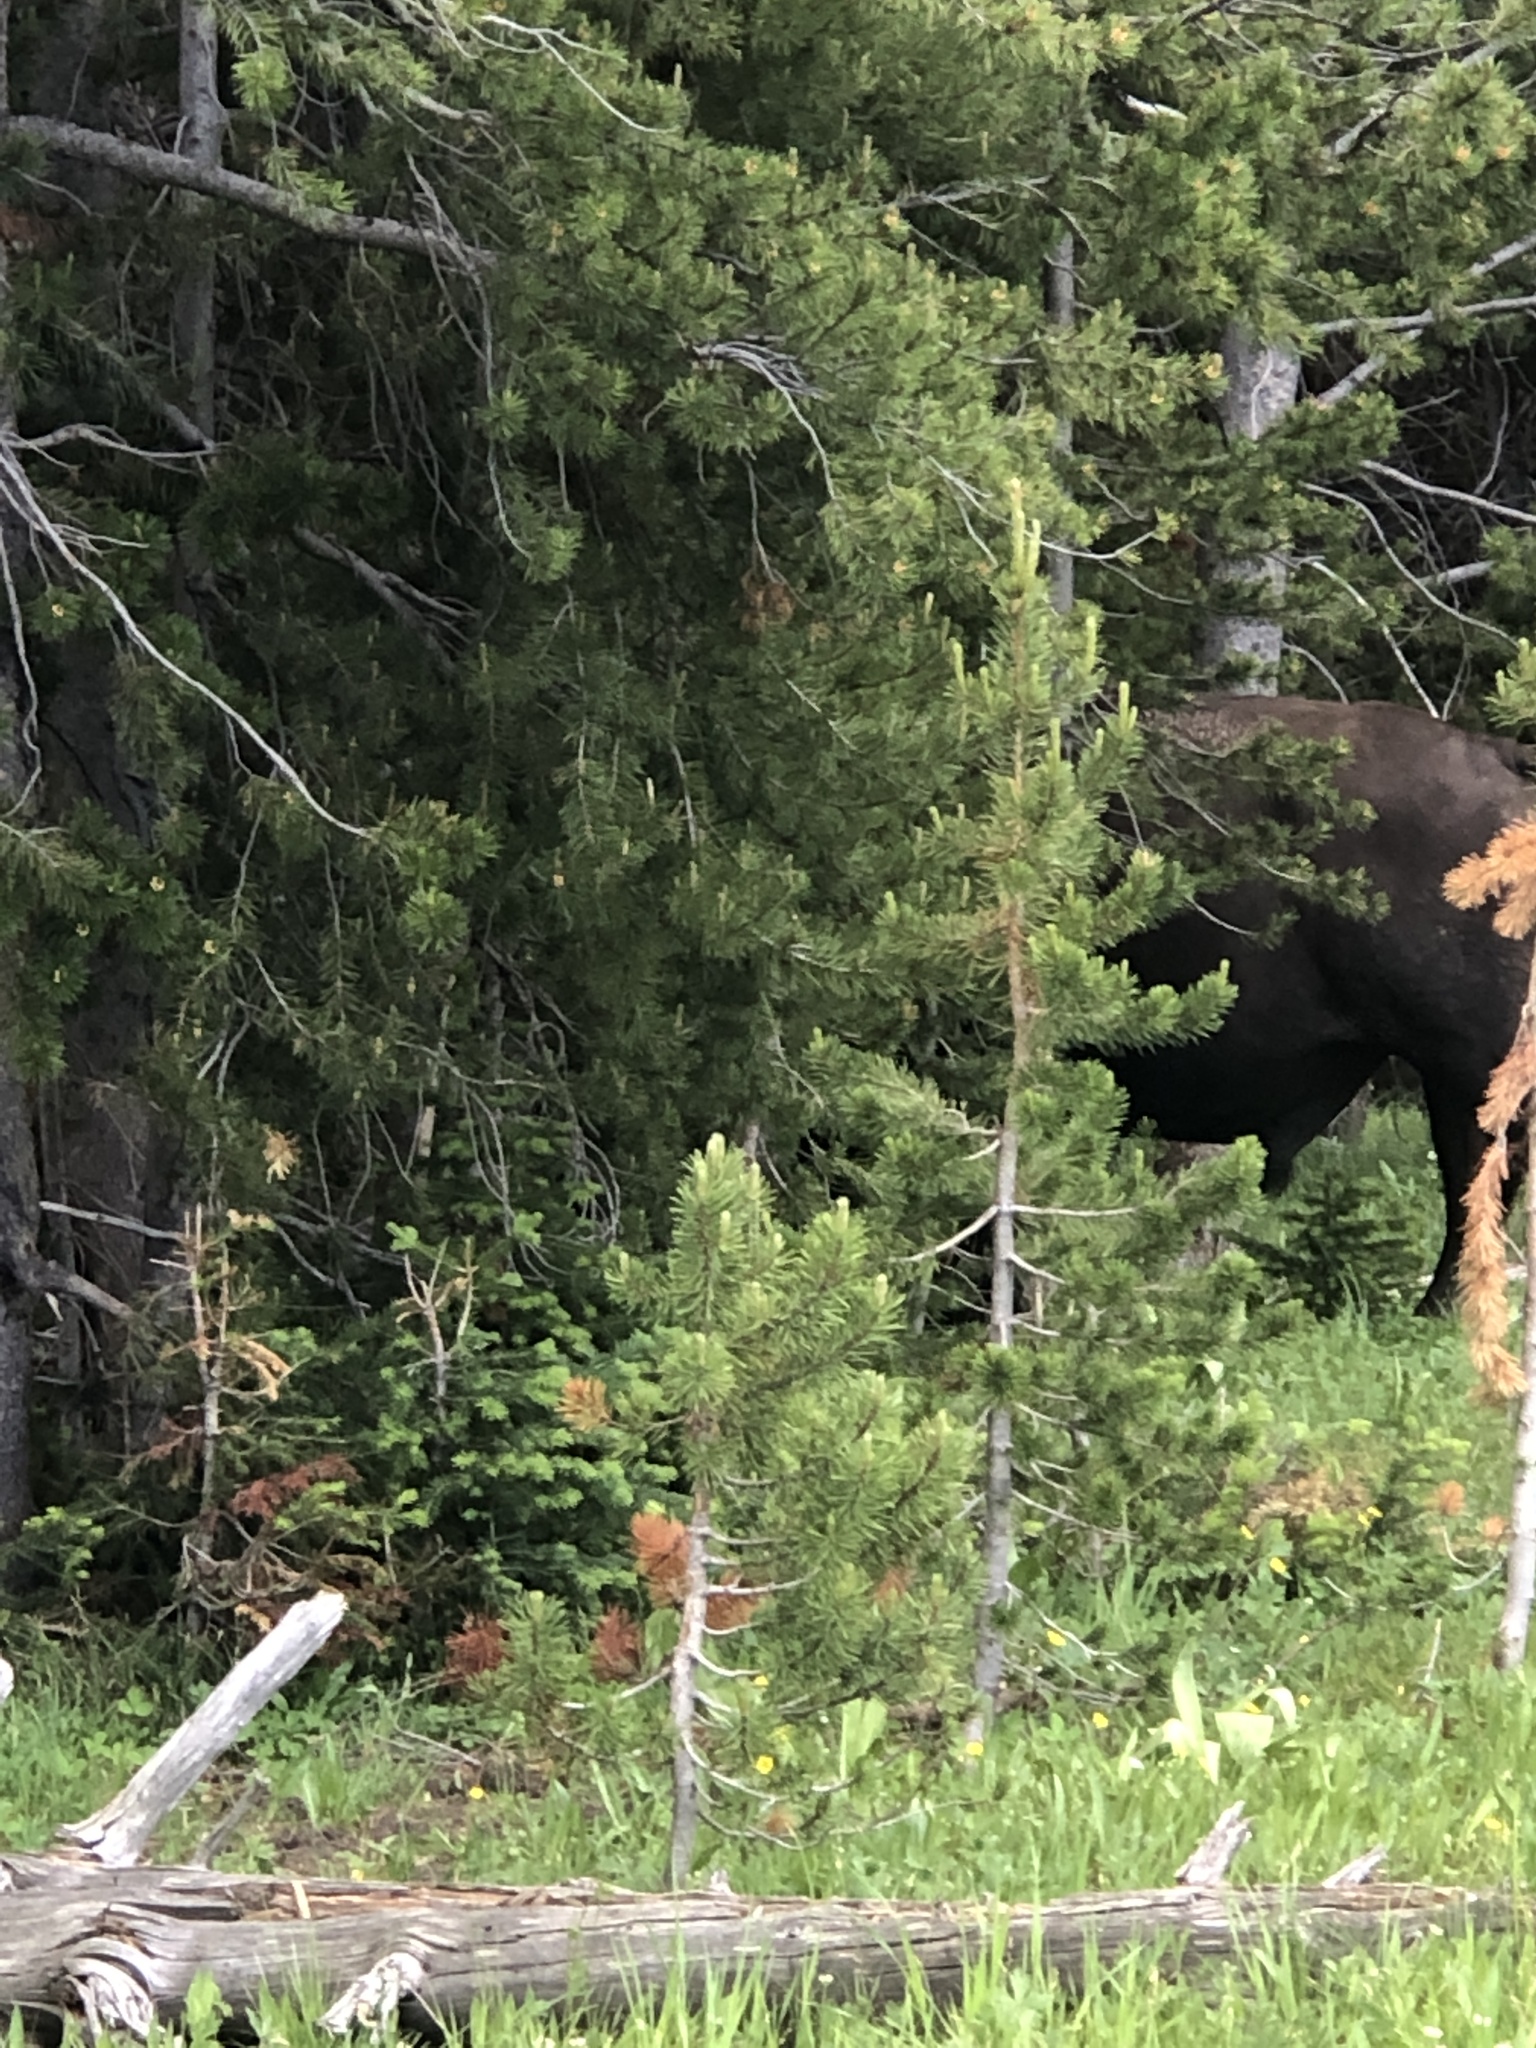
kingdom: Animalia
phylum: Chordata
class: Mammalia
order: Artiodactyla
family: Bovidae
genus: Bison
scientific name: Bison bison
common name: American bison
